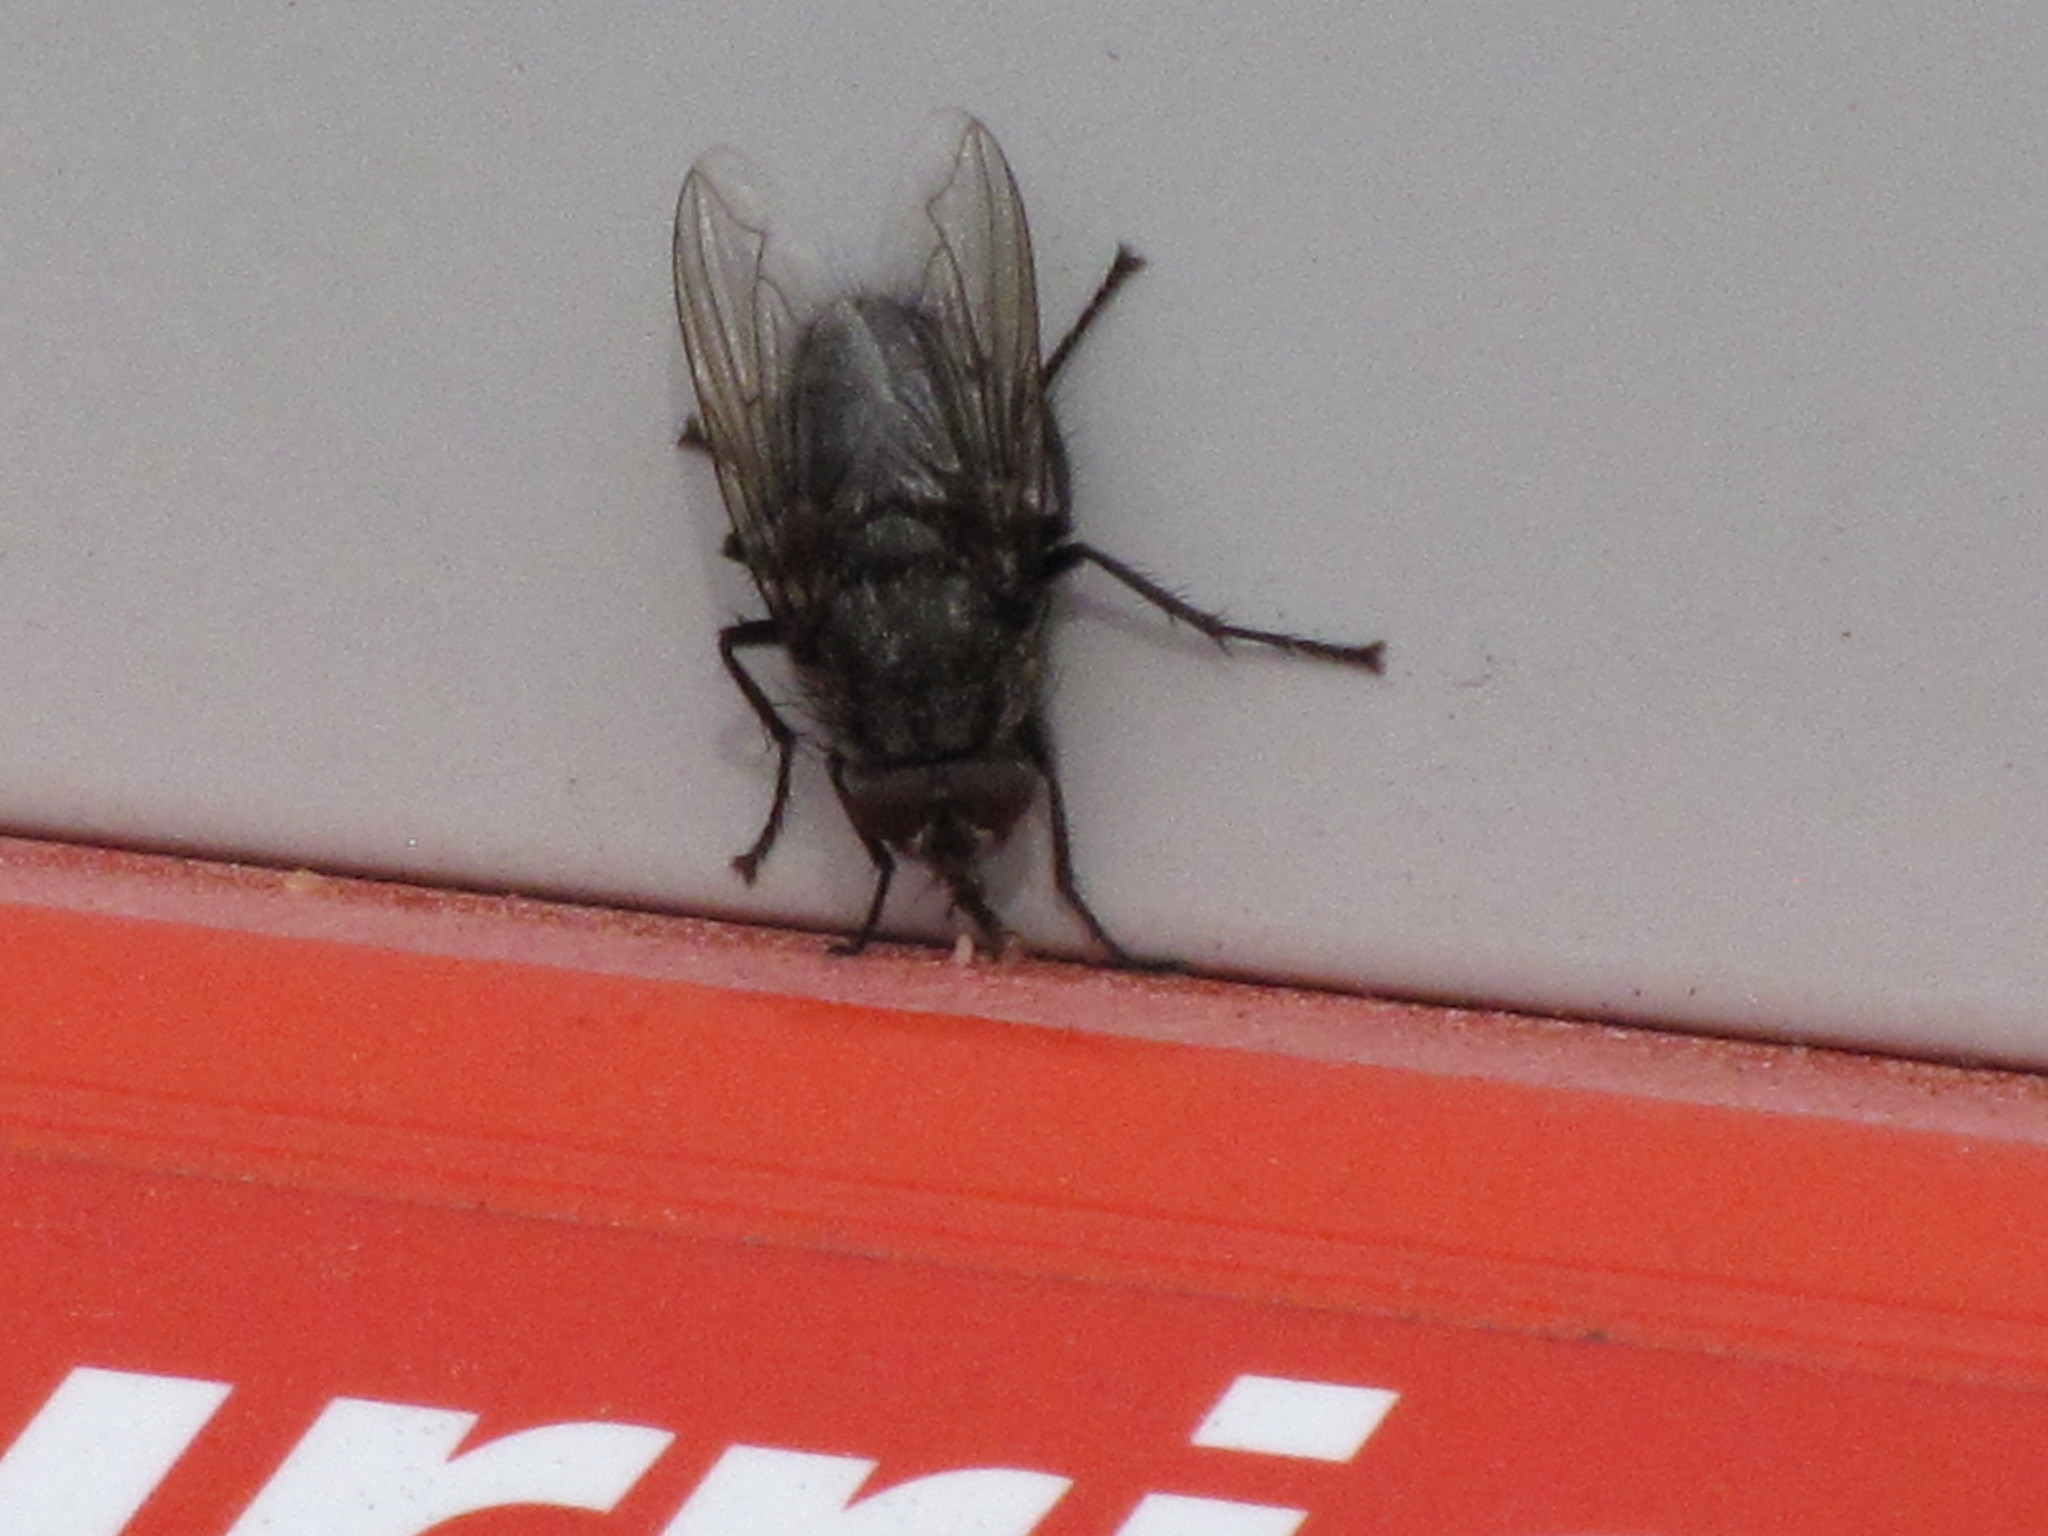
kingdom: Animalia
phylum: Arthropoda
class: Insecta
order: Diptera
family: Polleniidae
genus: Pollenia
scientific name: Pollenia vagabunda
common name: Vagabund cluster fly
